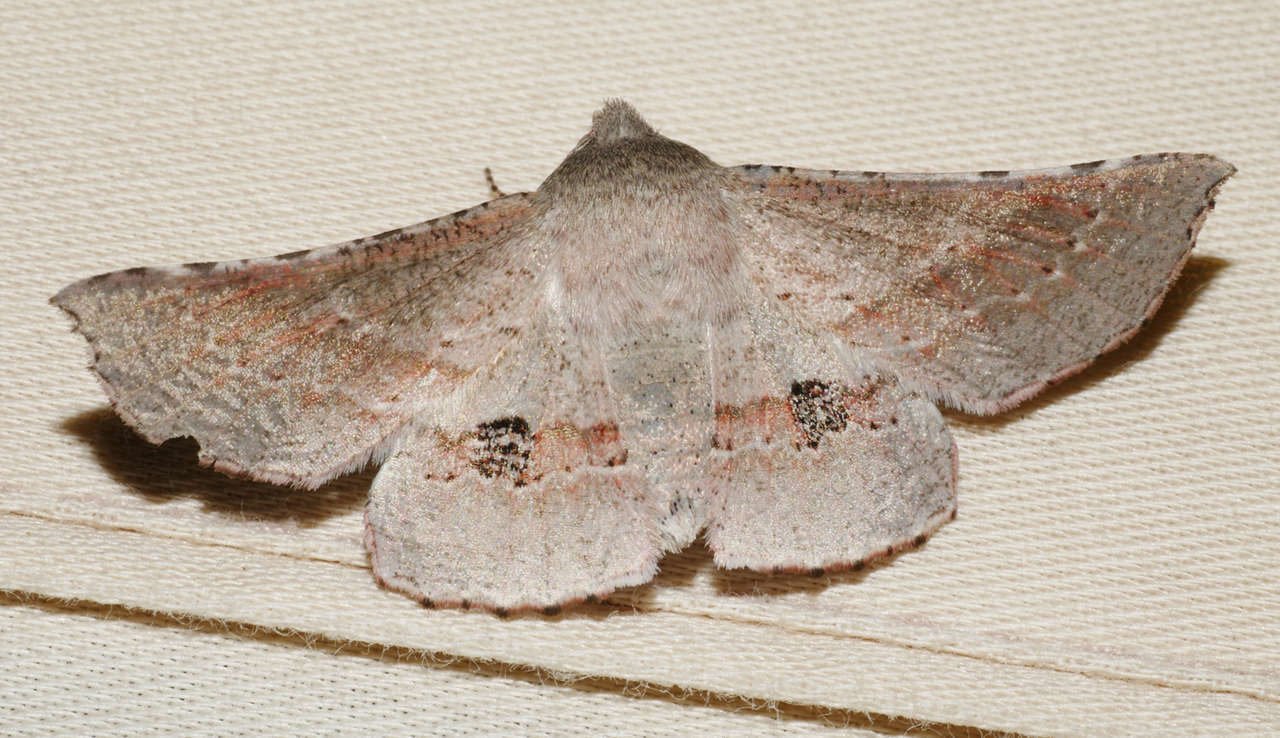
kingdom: Animalia
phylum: Arthropoda
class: Insecta
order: Lepidoptera
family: Geometridae
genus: Oenochroma
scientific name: Oenochroma privata
